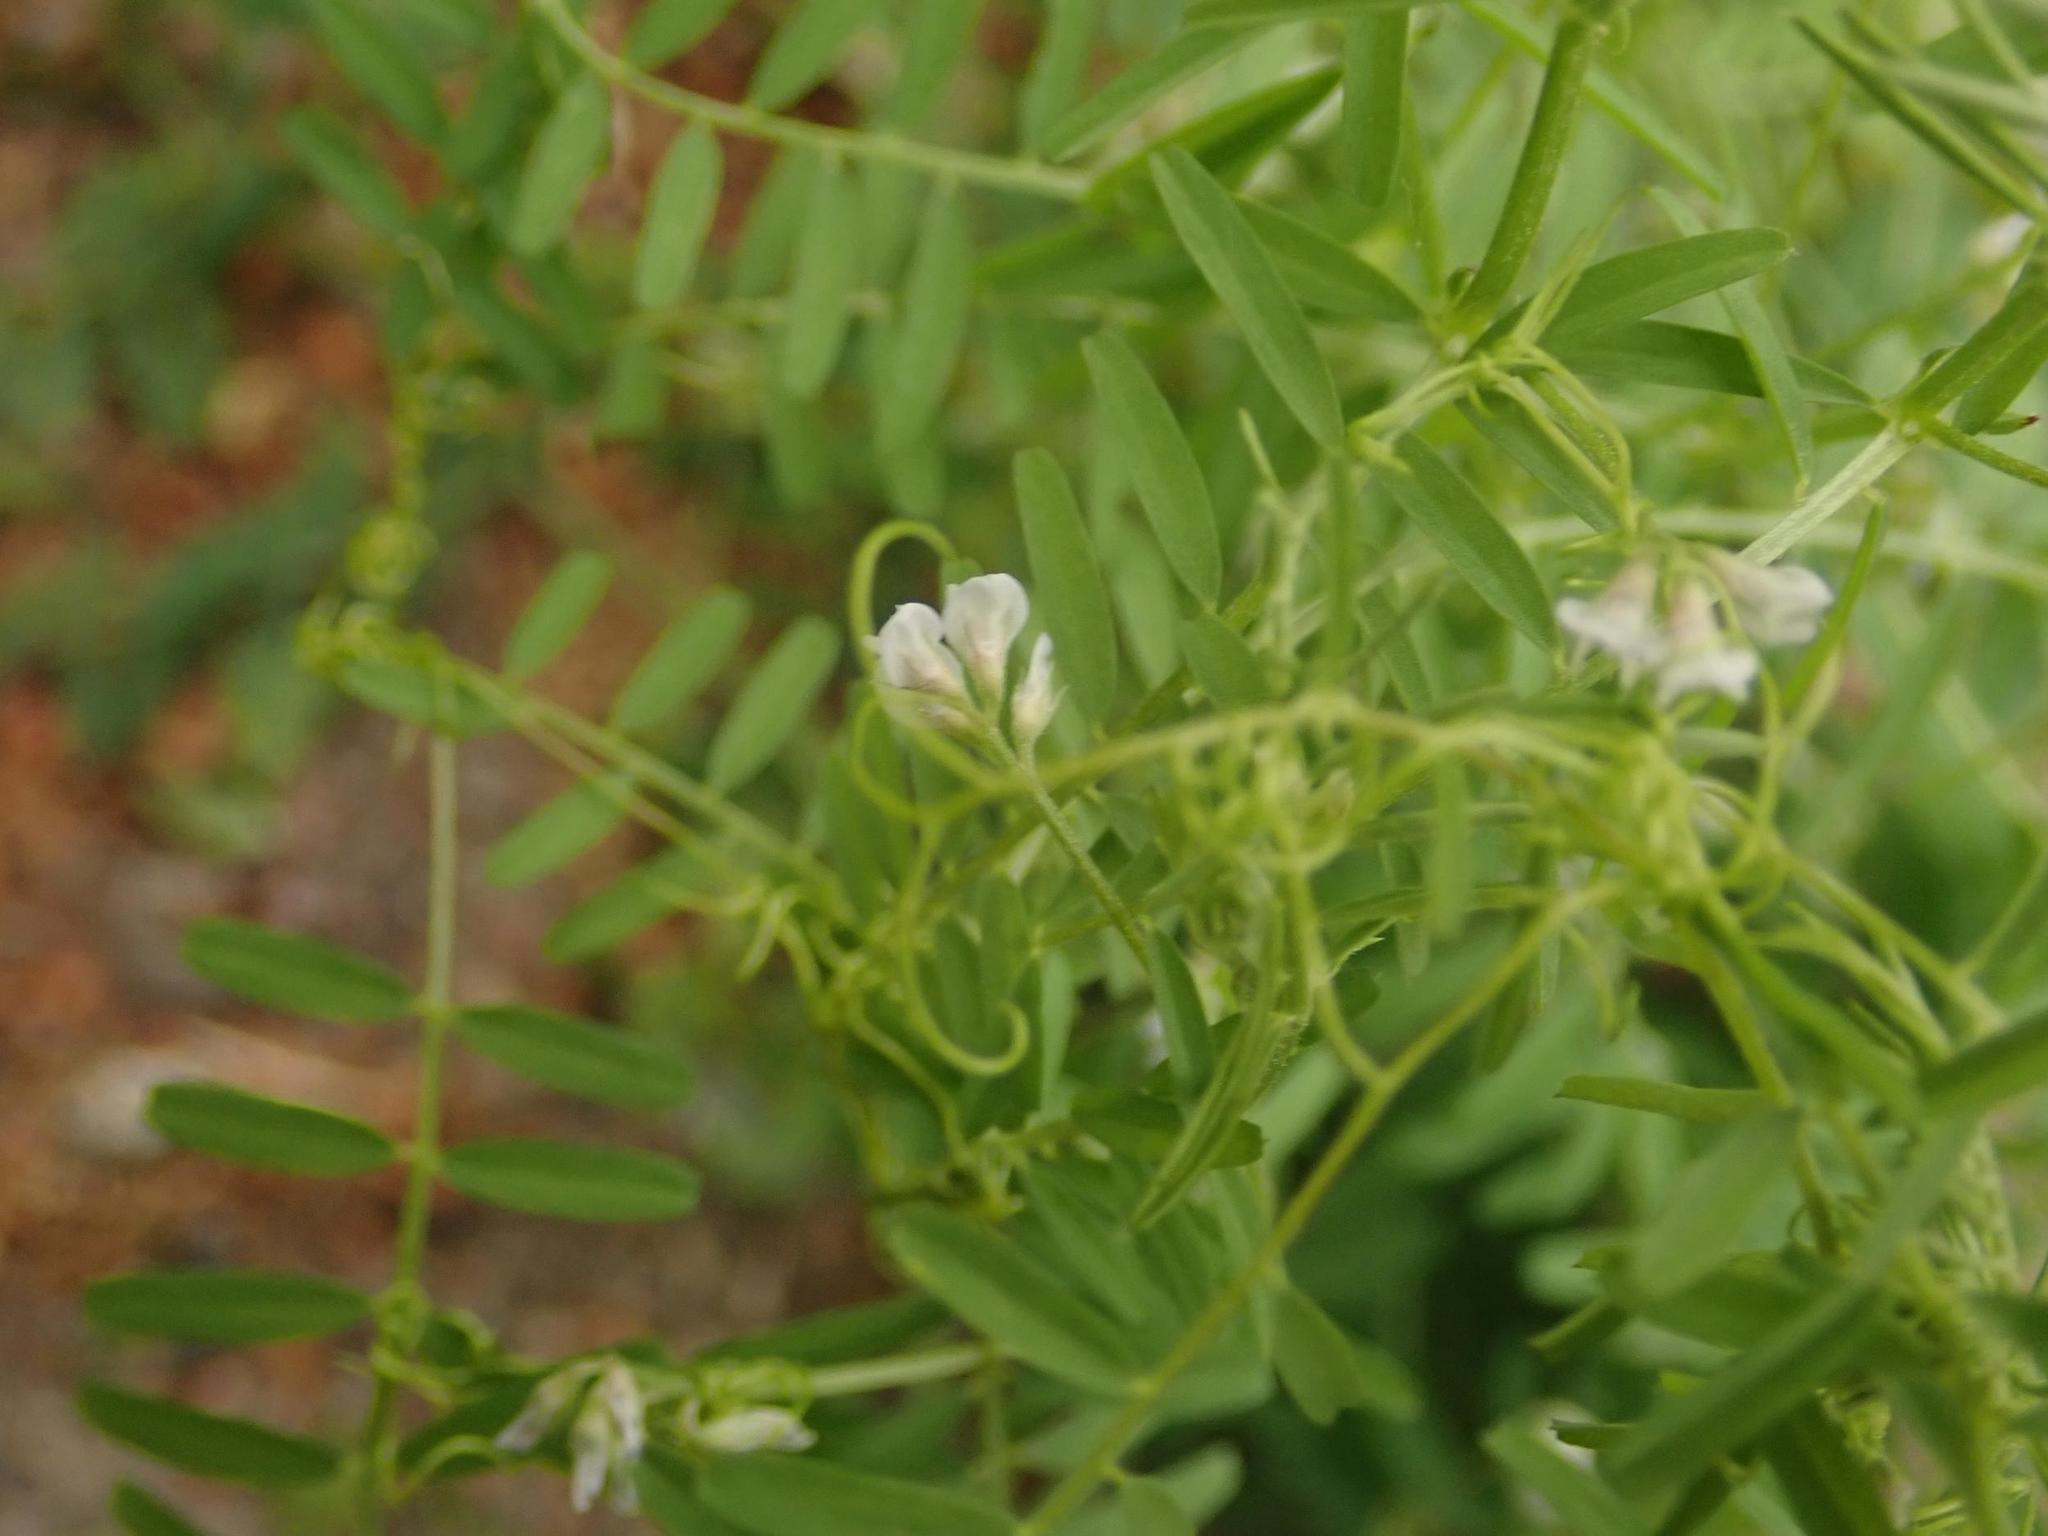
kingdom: Plantae
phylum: Tracheophyta
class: Magnoliopsida
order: Fabales
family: Fabaceae
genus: Vicia
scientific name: Vicia hirsuta
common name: Tiny vetch
